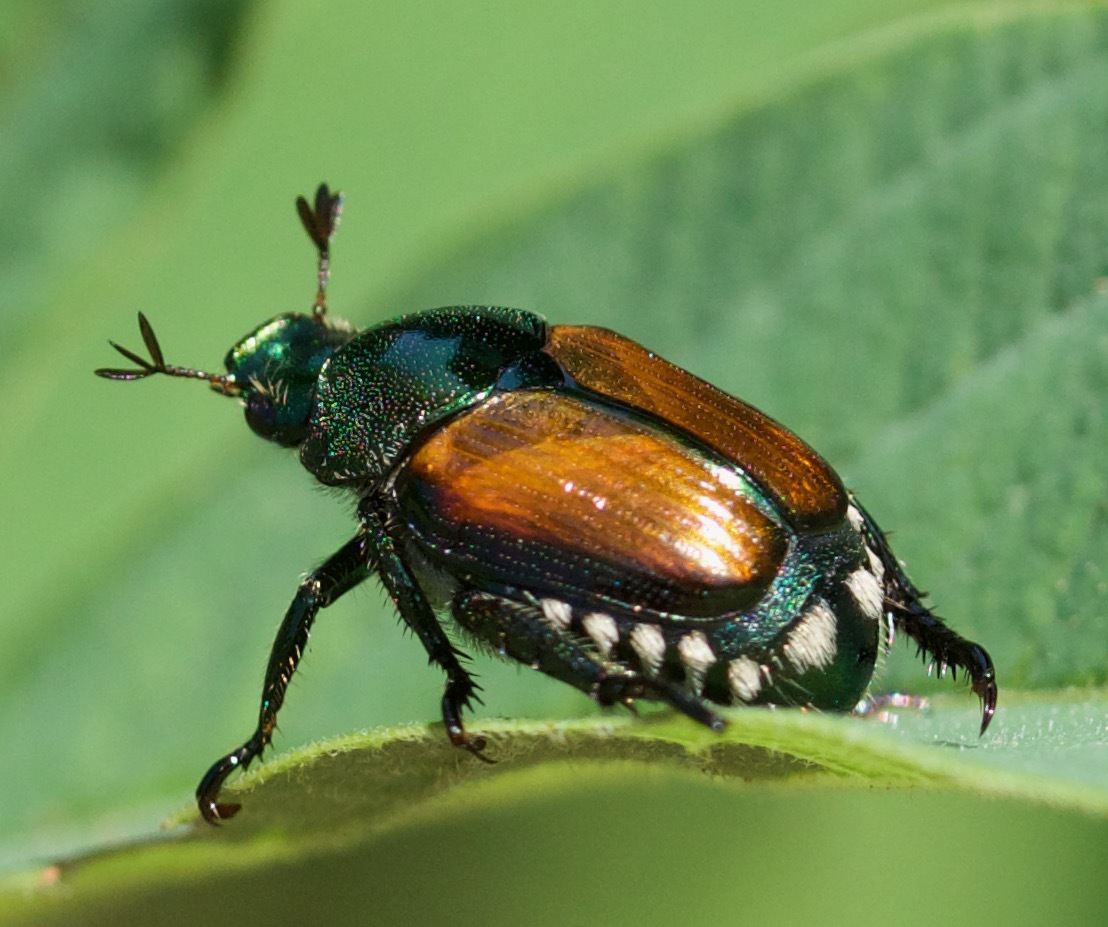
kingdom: Animalia
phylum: Arthropoda
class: Insecta
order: Coleoptera
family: Scarabaeidae
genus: Popillia
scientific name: Popillia japonica
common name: Japanese beetle
